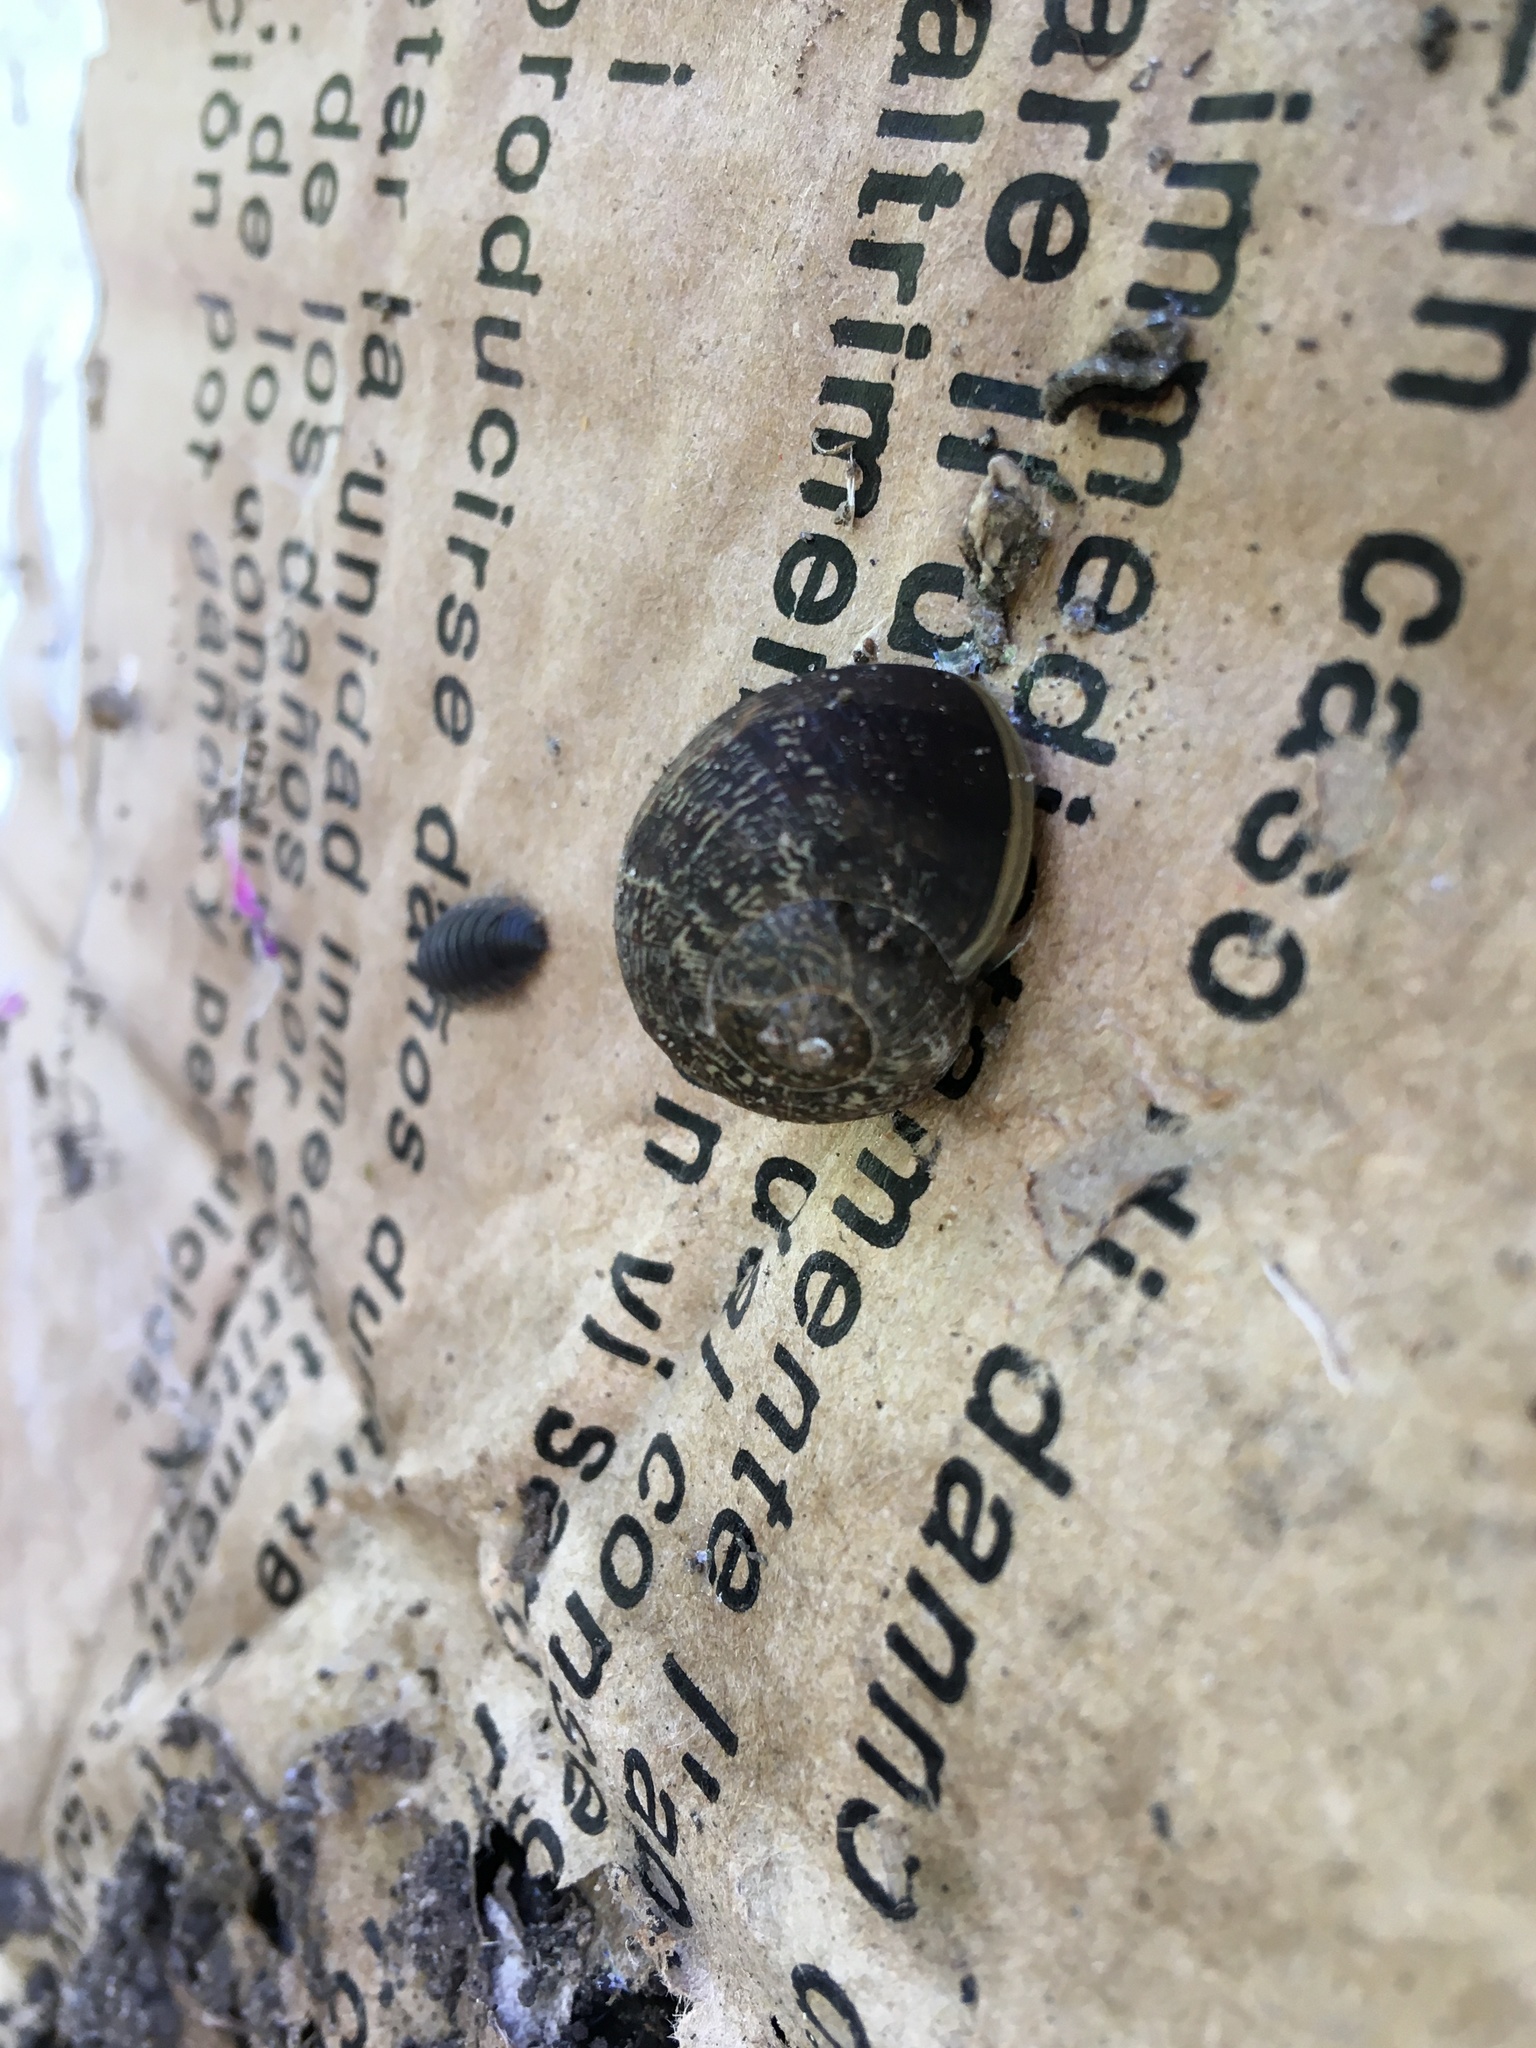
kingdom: Animalia
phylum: Mollusca
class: Gastropoda
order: Stylommatophora
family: Helicidae
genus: Cornu
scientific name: Cornu aspersum
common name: Brown garden snail
